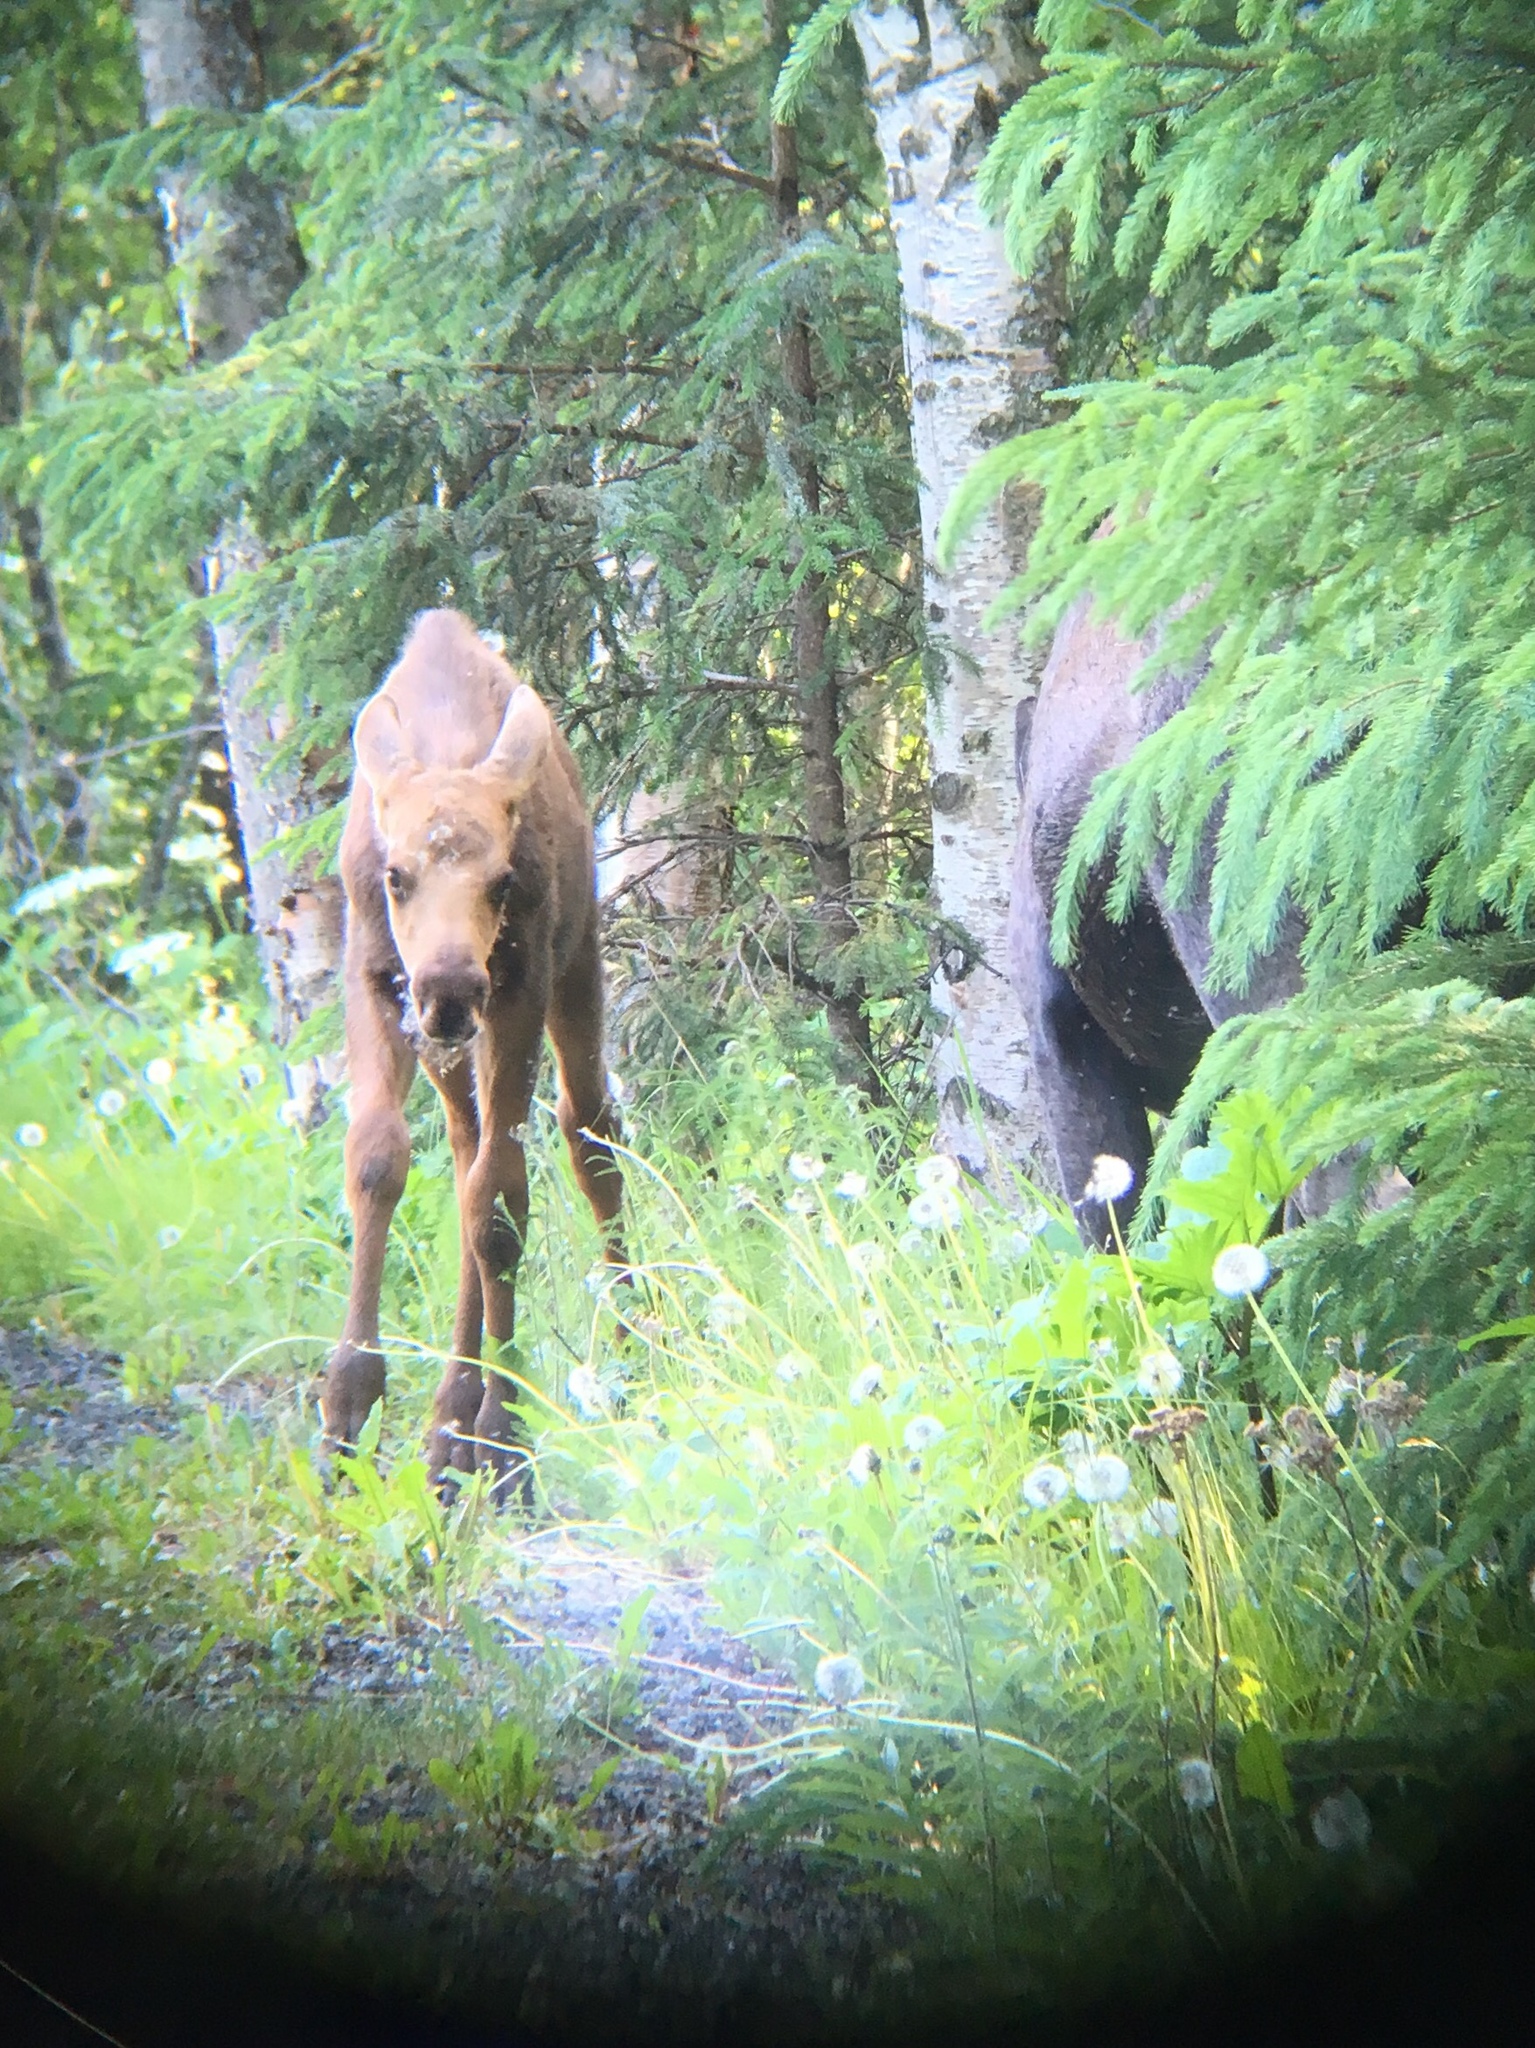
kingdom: Animalia
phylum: Chordata
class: Mammalia
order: Artiodactyla
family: Cervidae
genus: Alces
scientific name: Alces alces
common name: Moose
